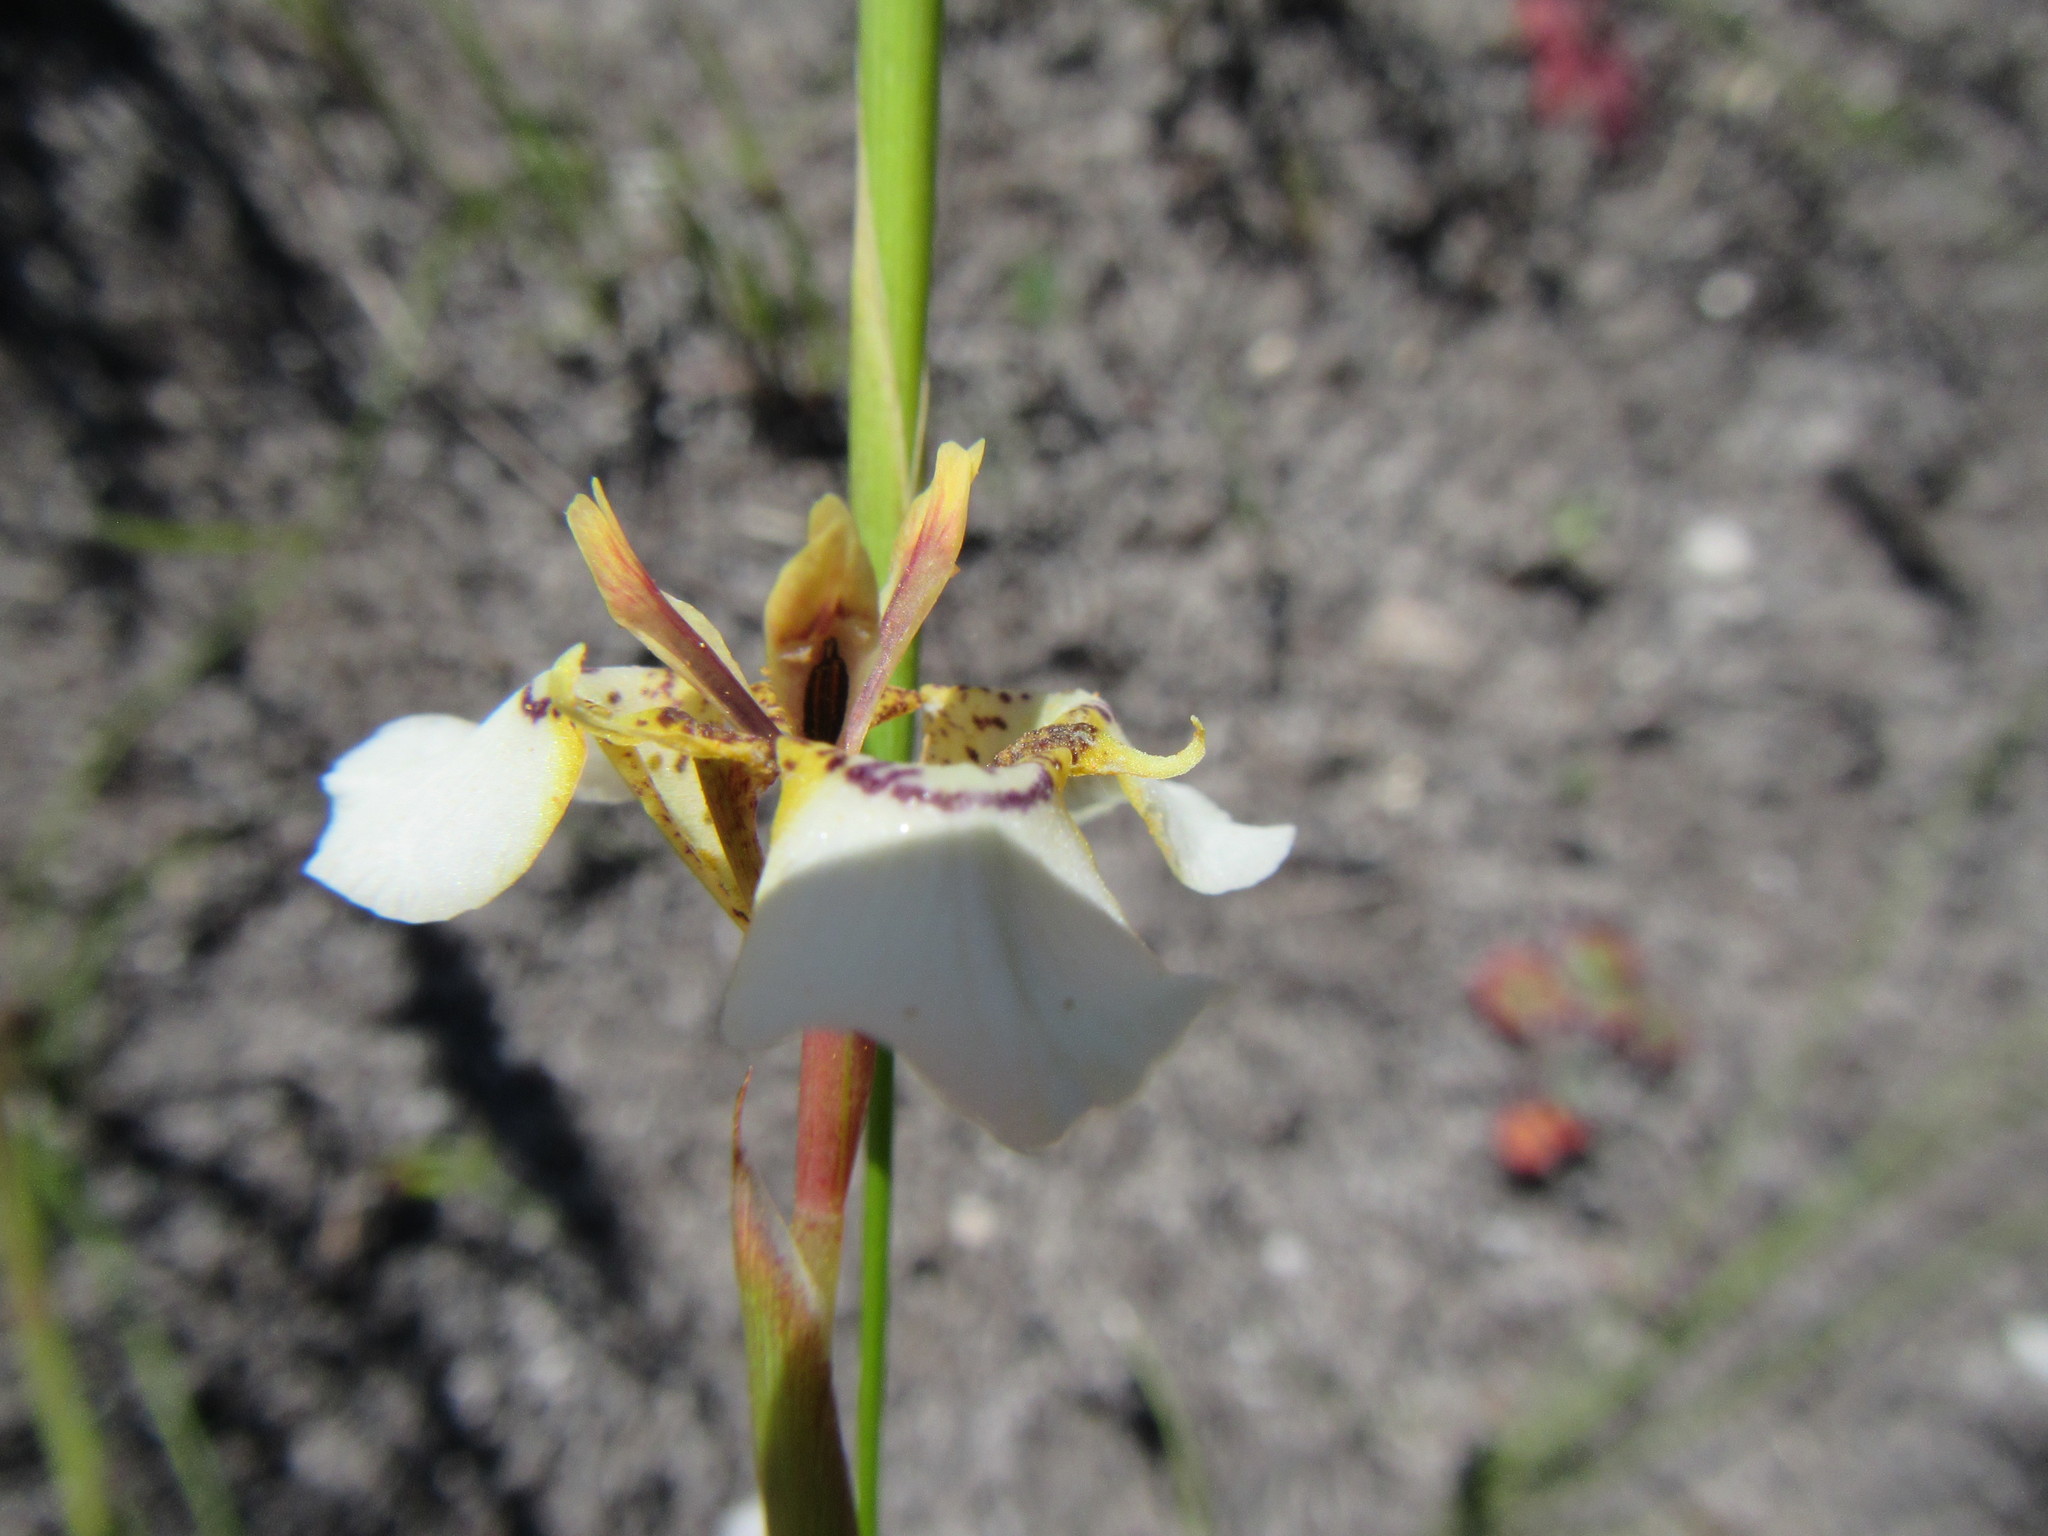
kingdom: Plantae
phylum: Tracheophyta
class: Liliopsida
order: Asparagales
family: Iridaceae
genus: Moraea
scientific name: Moraea lurida
